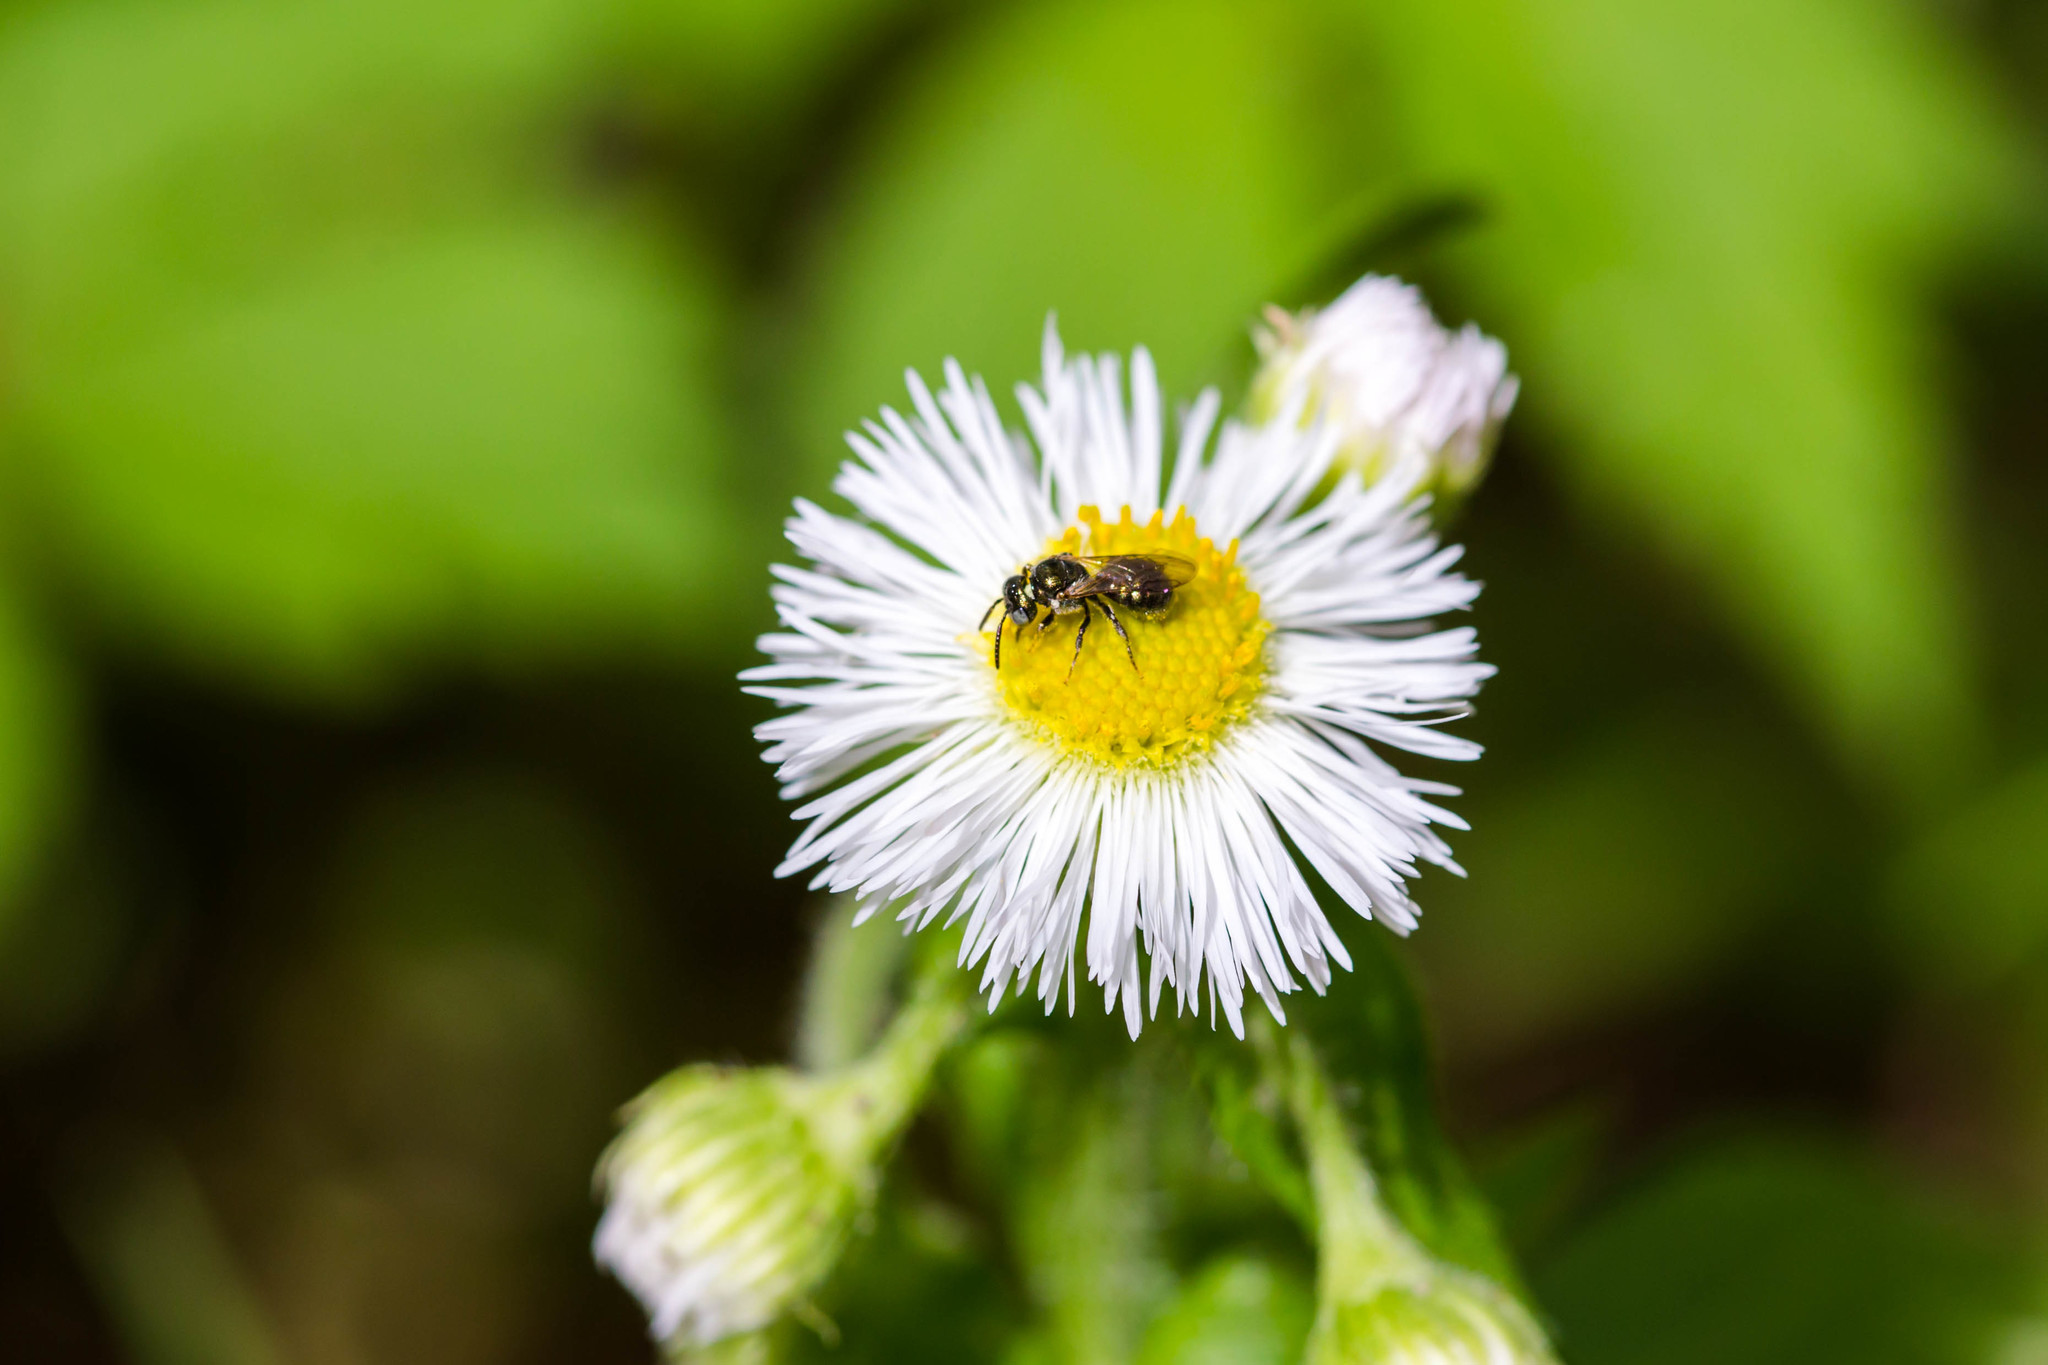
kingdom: Animalia
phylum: Arthropoda
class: Insecta
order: Hymenoptera
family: Apidae
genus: Ceratina
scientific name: Ceratina strenua
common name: Nimble carpenter bee
